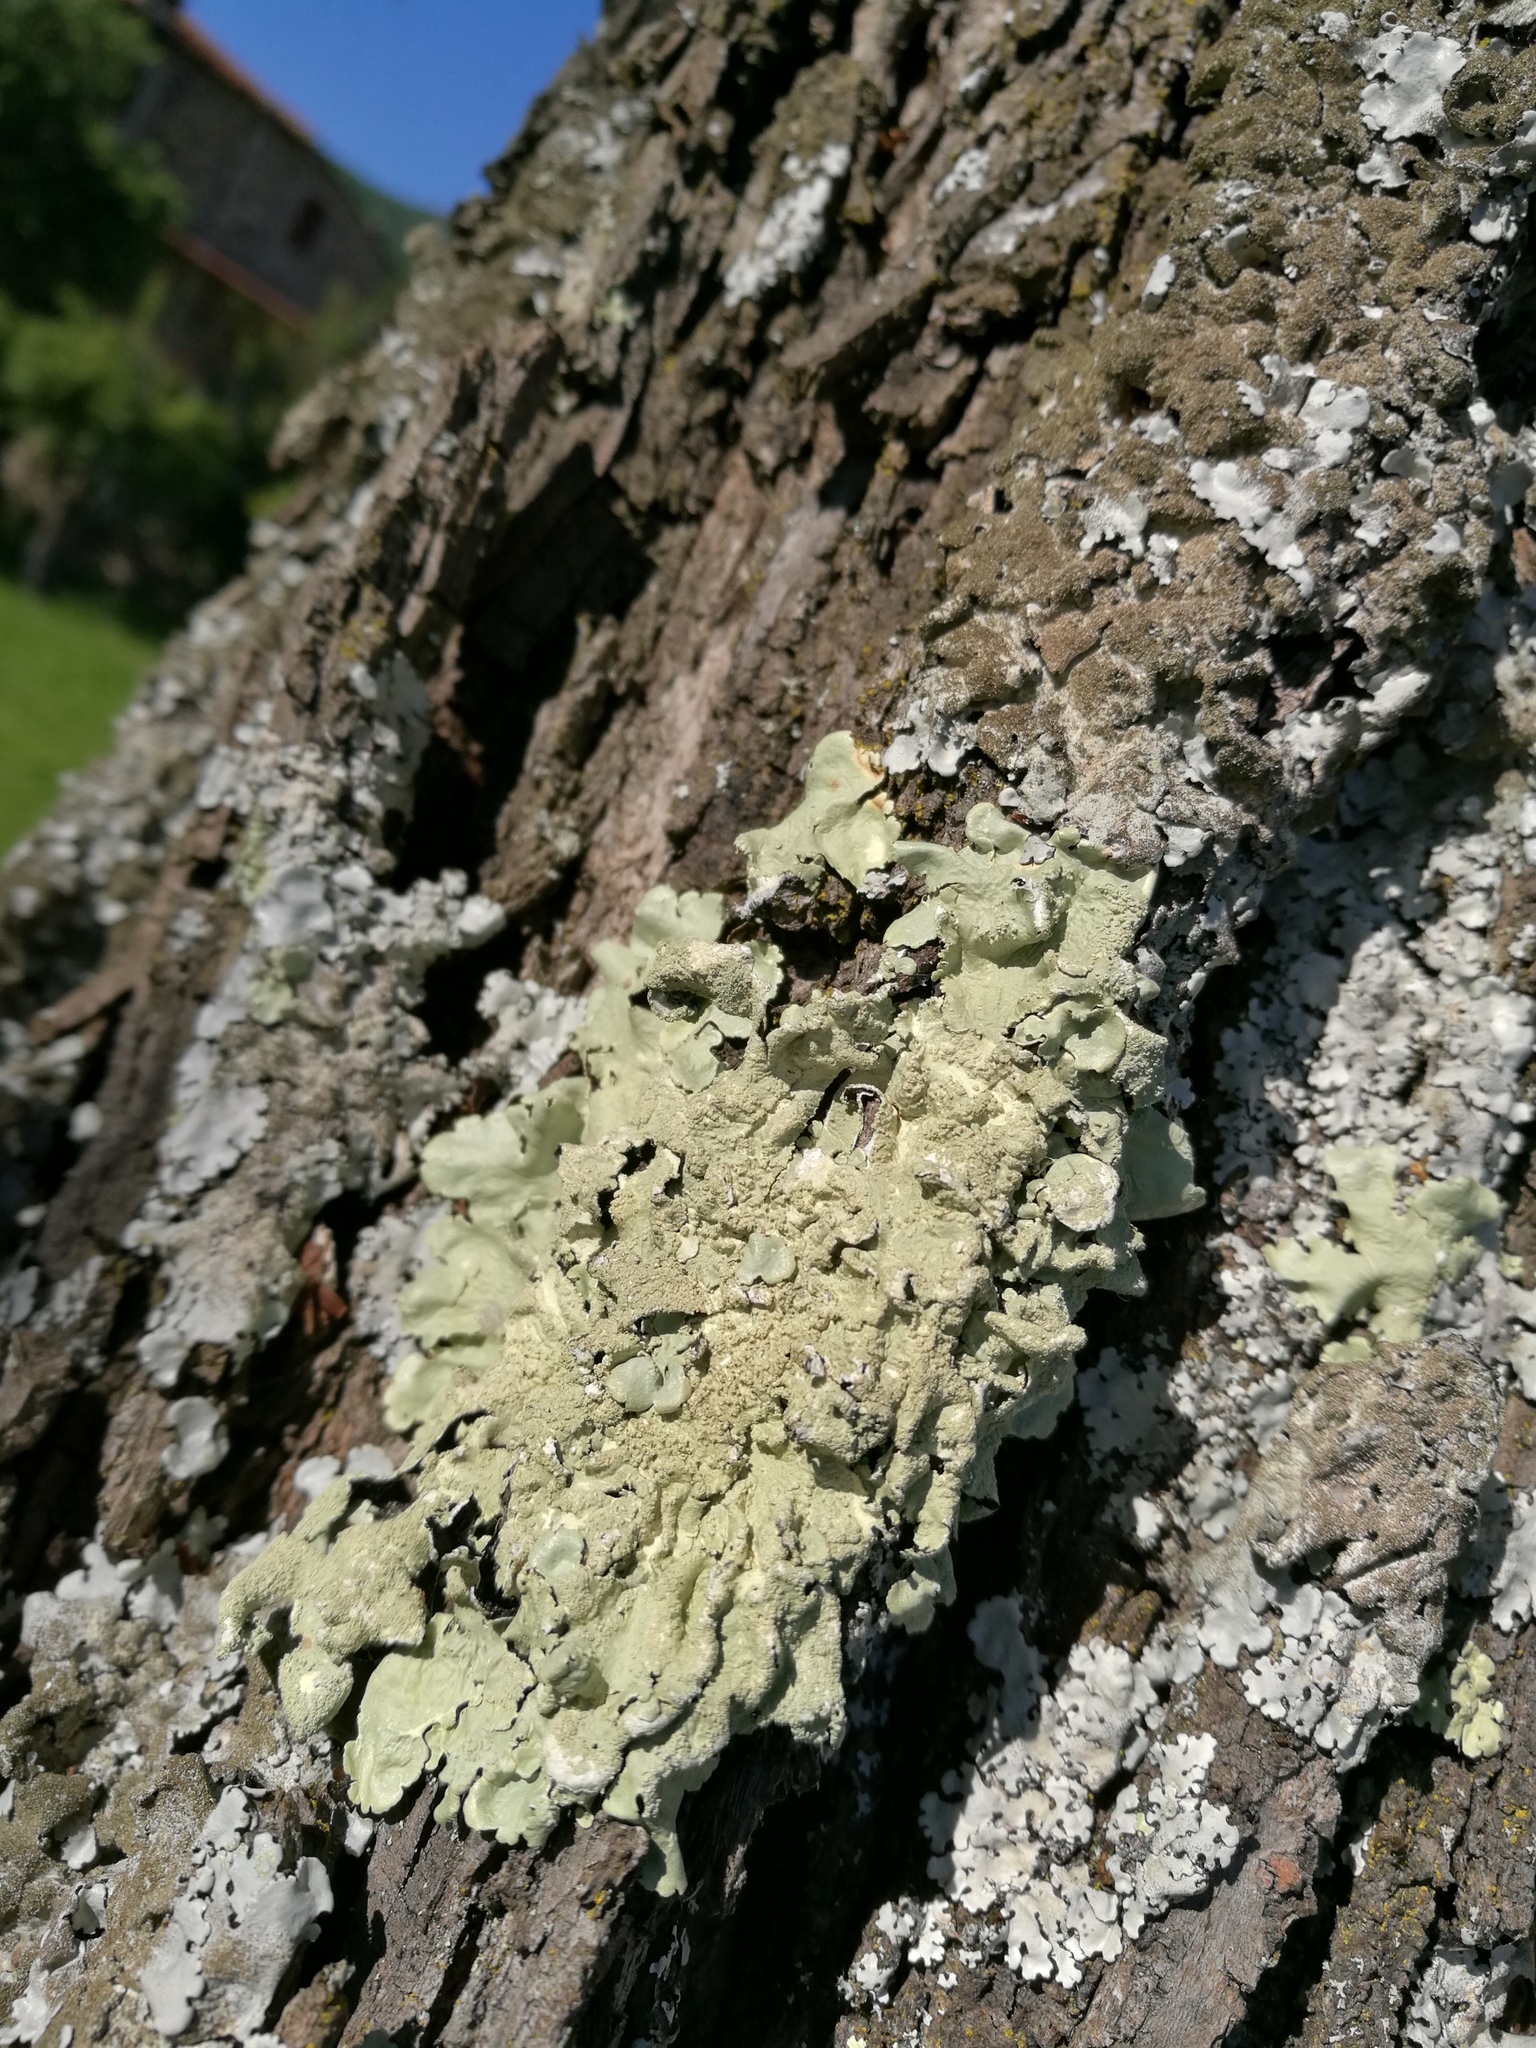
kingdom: Fungi
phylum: Ascomycota
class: Lecanoromycetes
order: Lecanorales
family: Parmeliaceae
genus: Flavoparmelia
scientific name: Flavoparmelia caperata
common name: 40-mile per hour lichen
